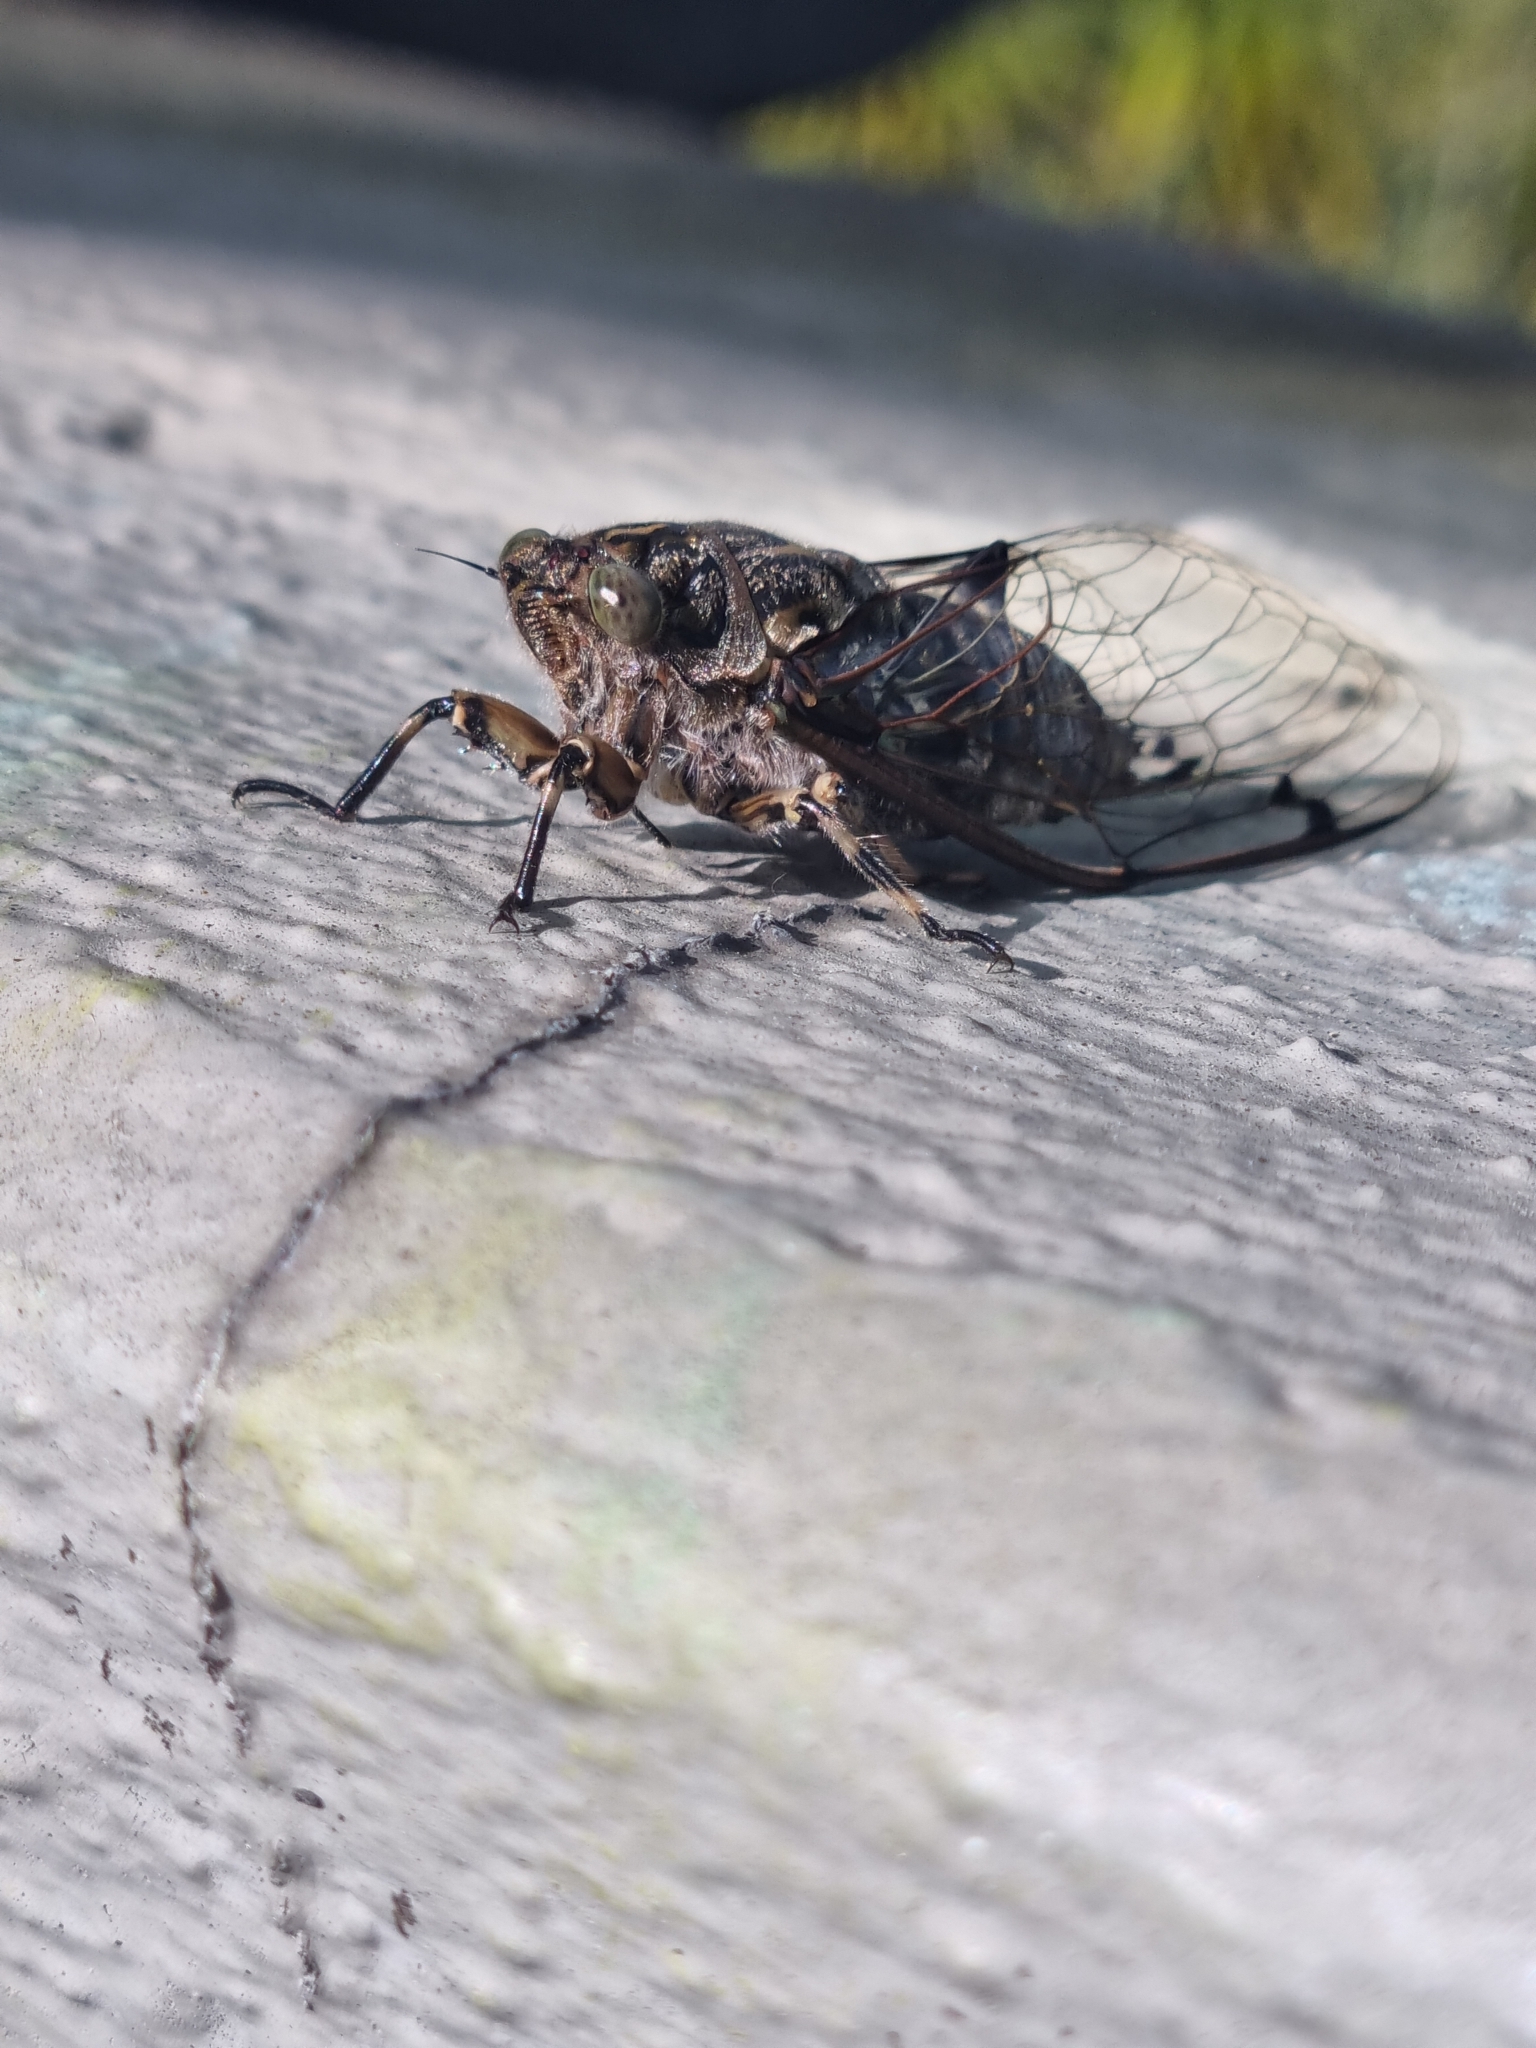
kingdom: Animalia
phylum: Arthropoda
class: Insecta
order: Hemiptera
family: Cicadidae
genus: Amphipsalta
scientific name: Amphipsalta cingulata
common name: Clapping cicada
